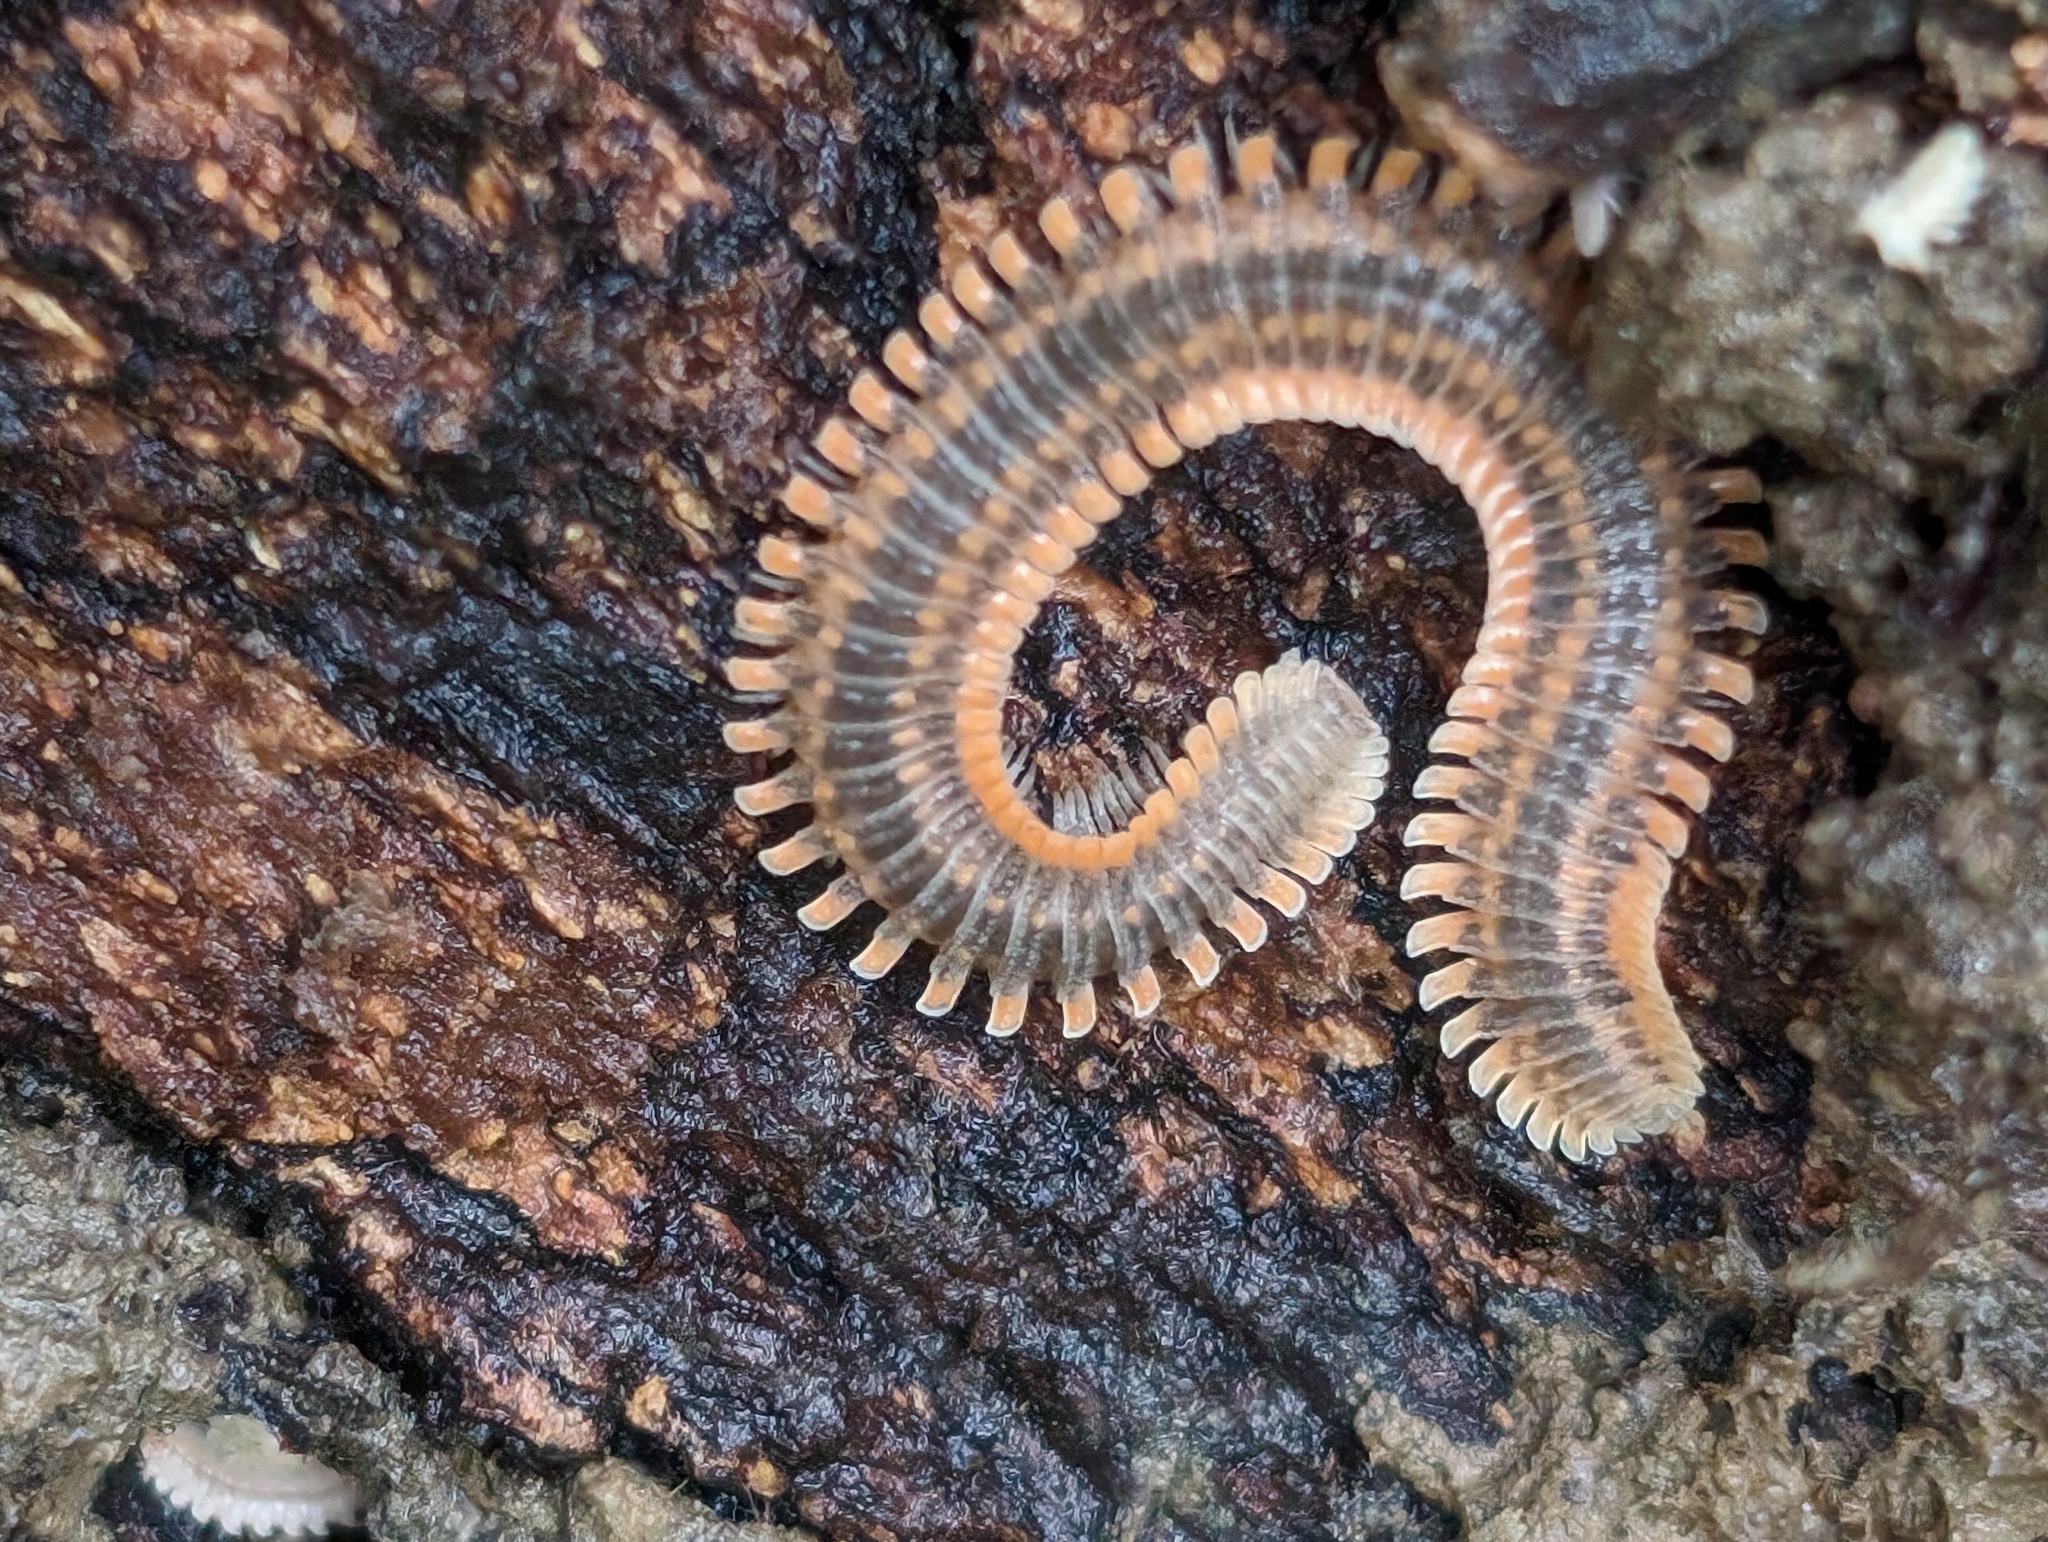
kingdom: Animalia
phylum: Arthropoda
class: Diplopoda
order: Platydesmida
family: Andrognathidae
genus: Brachycybe
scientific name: Brachycybe producta
